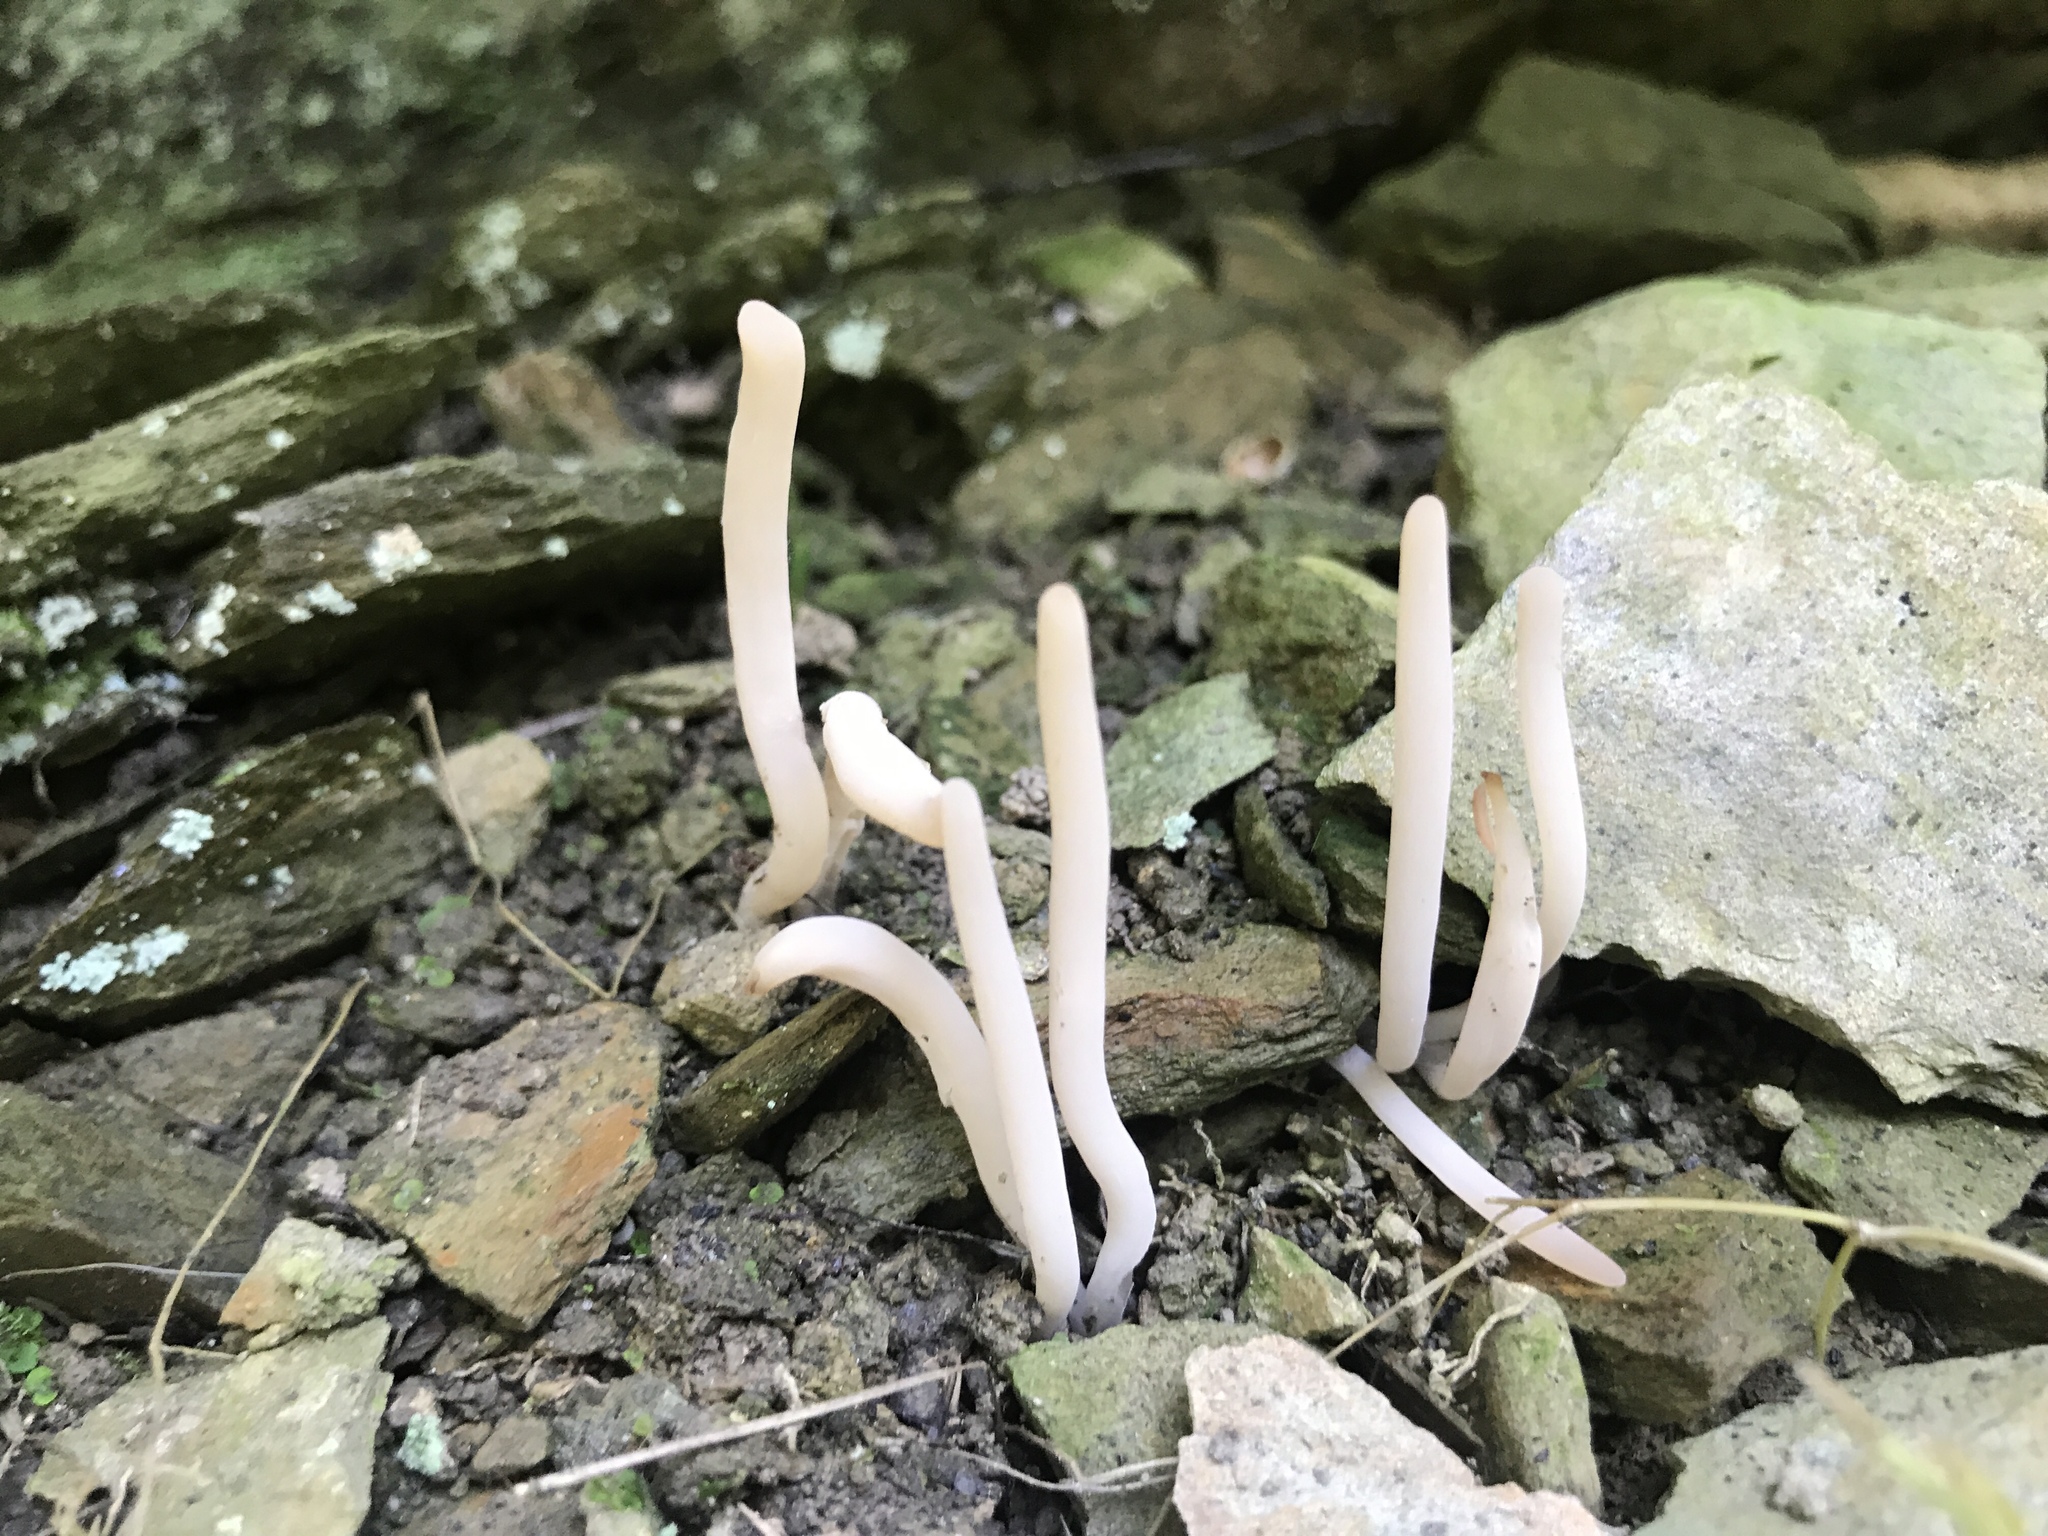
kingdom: Fungi
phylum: Basidiomycota
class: Agaricomycetes
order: Agaricales
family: Clavariaceae
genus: Clavaria
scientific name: Clavaria fragilis
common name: White spindles
